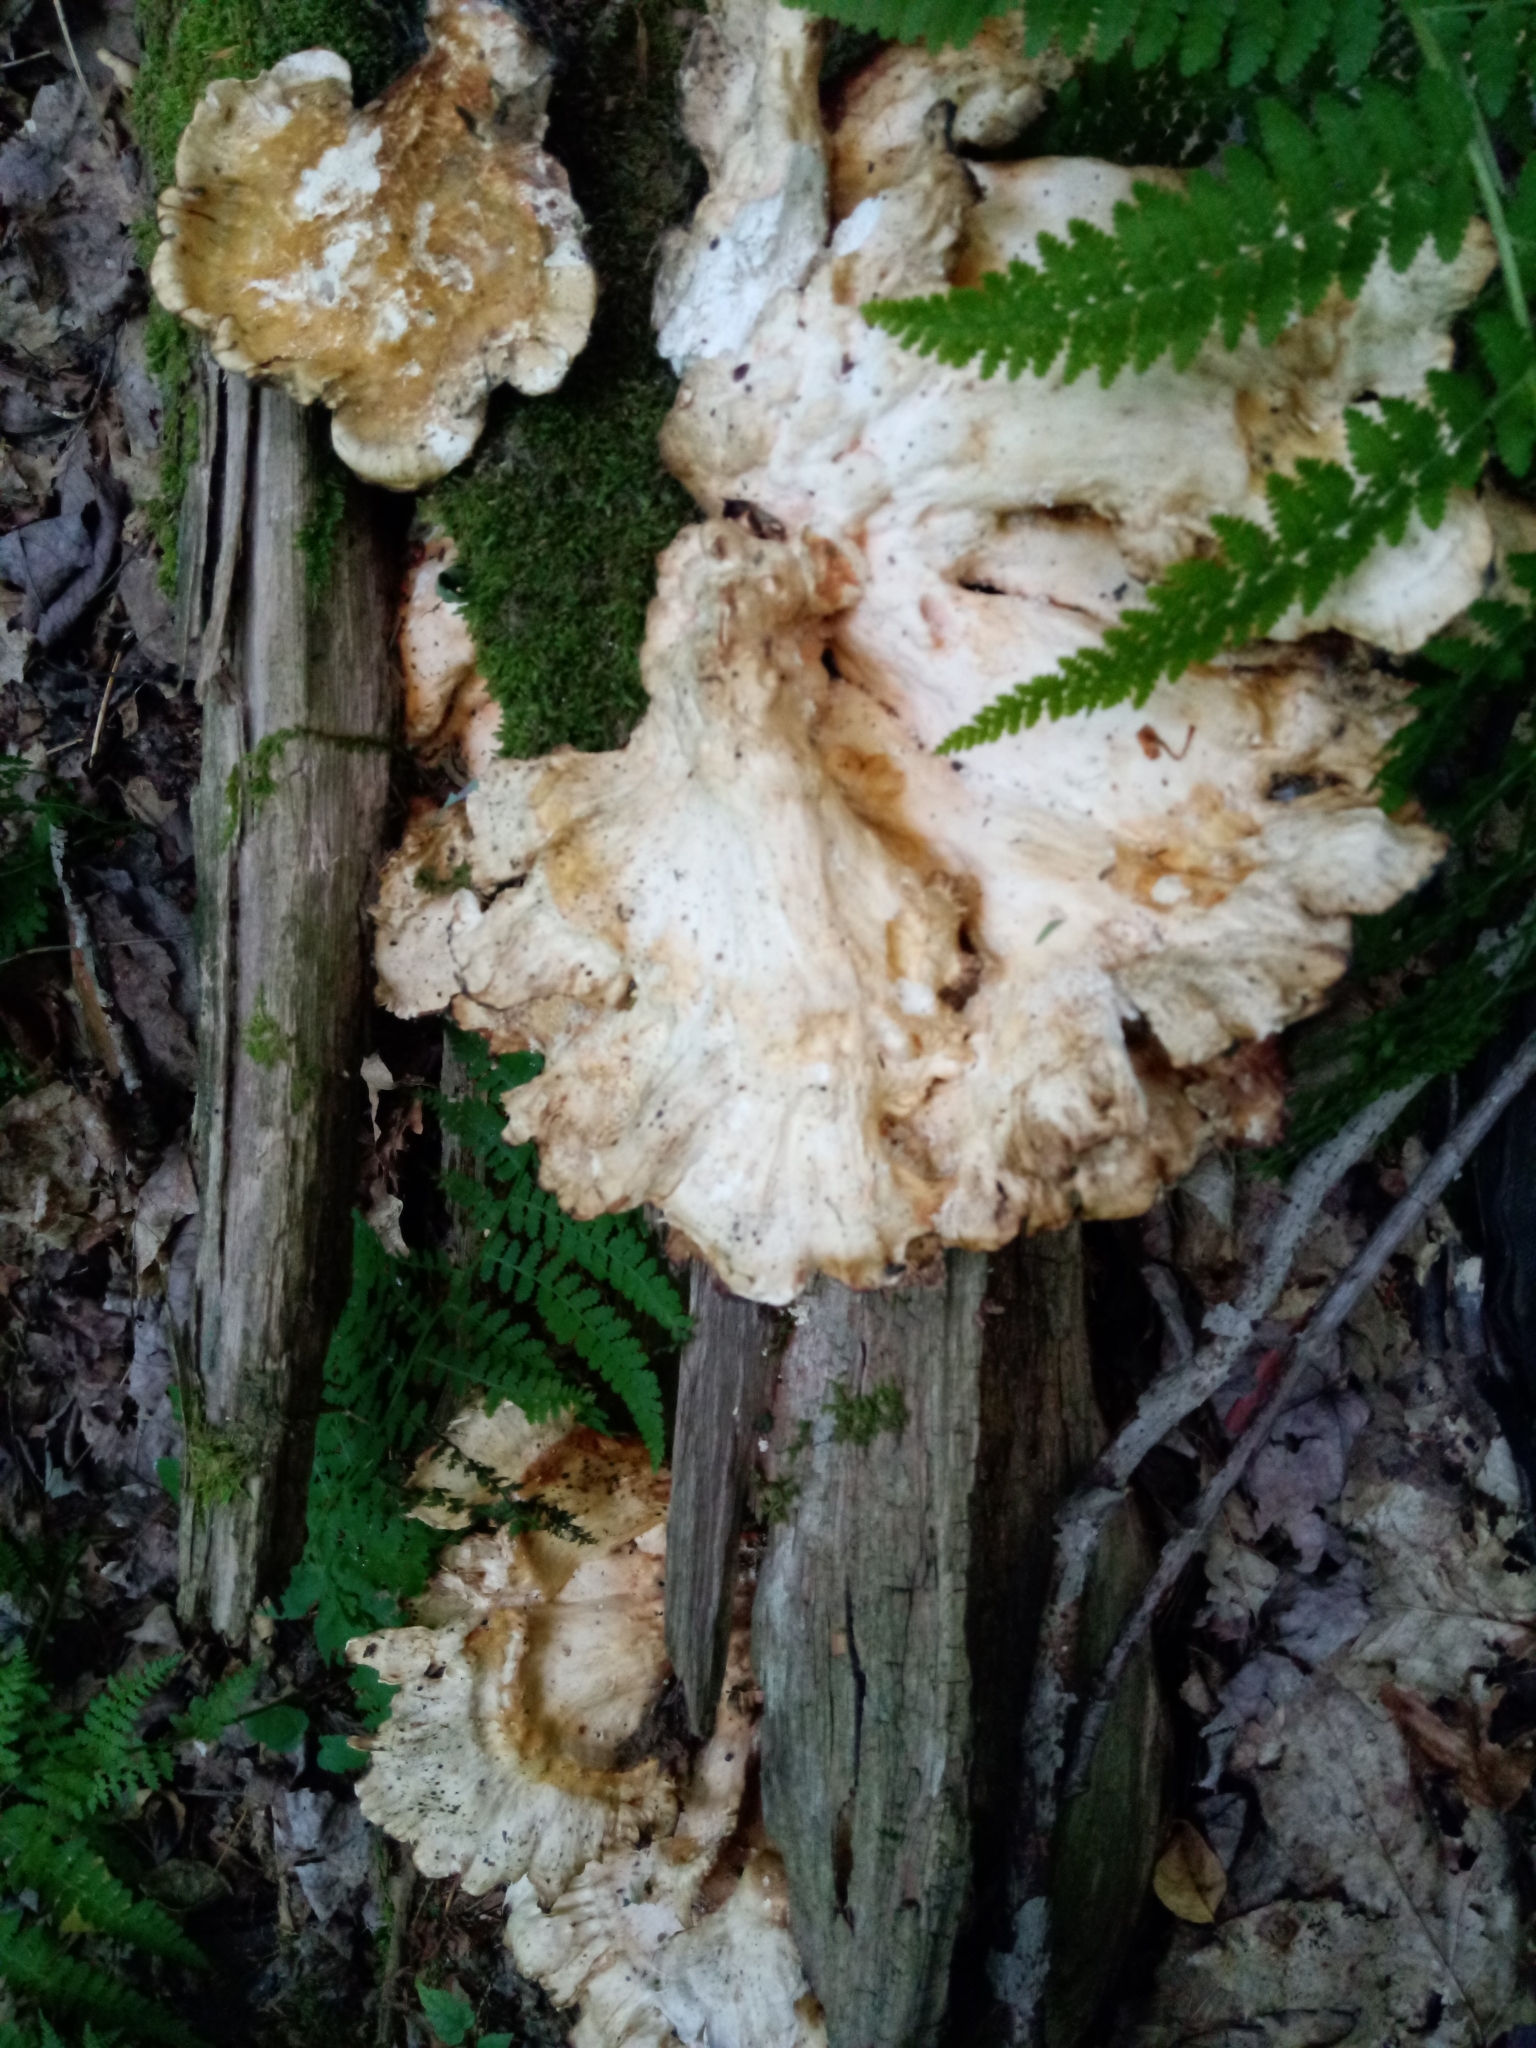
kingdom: Fungi
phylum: Basidiomycota
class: Agaricomycetes
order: Polyporales
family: Laetiporaceae
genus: Laetiporus
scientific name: Laetiporus sulphureus
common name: Chicken of the woods
